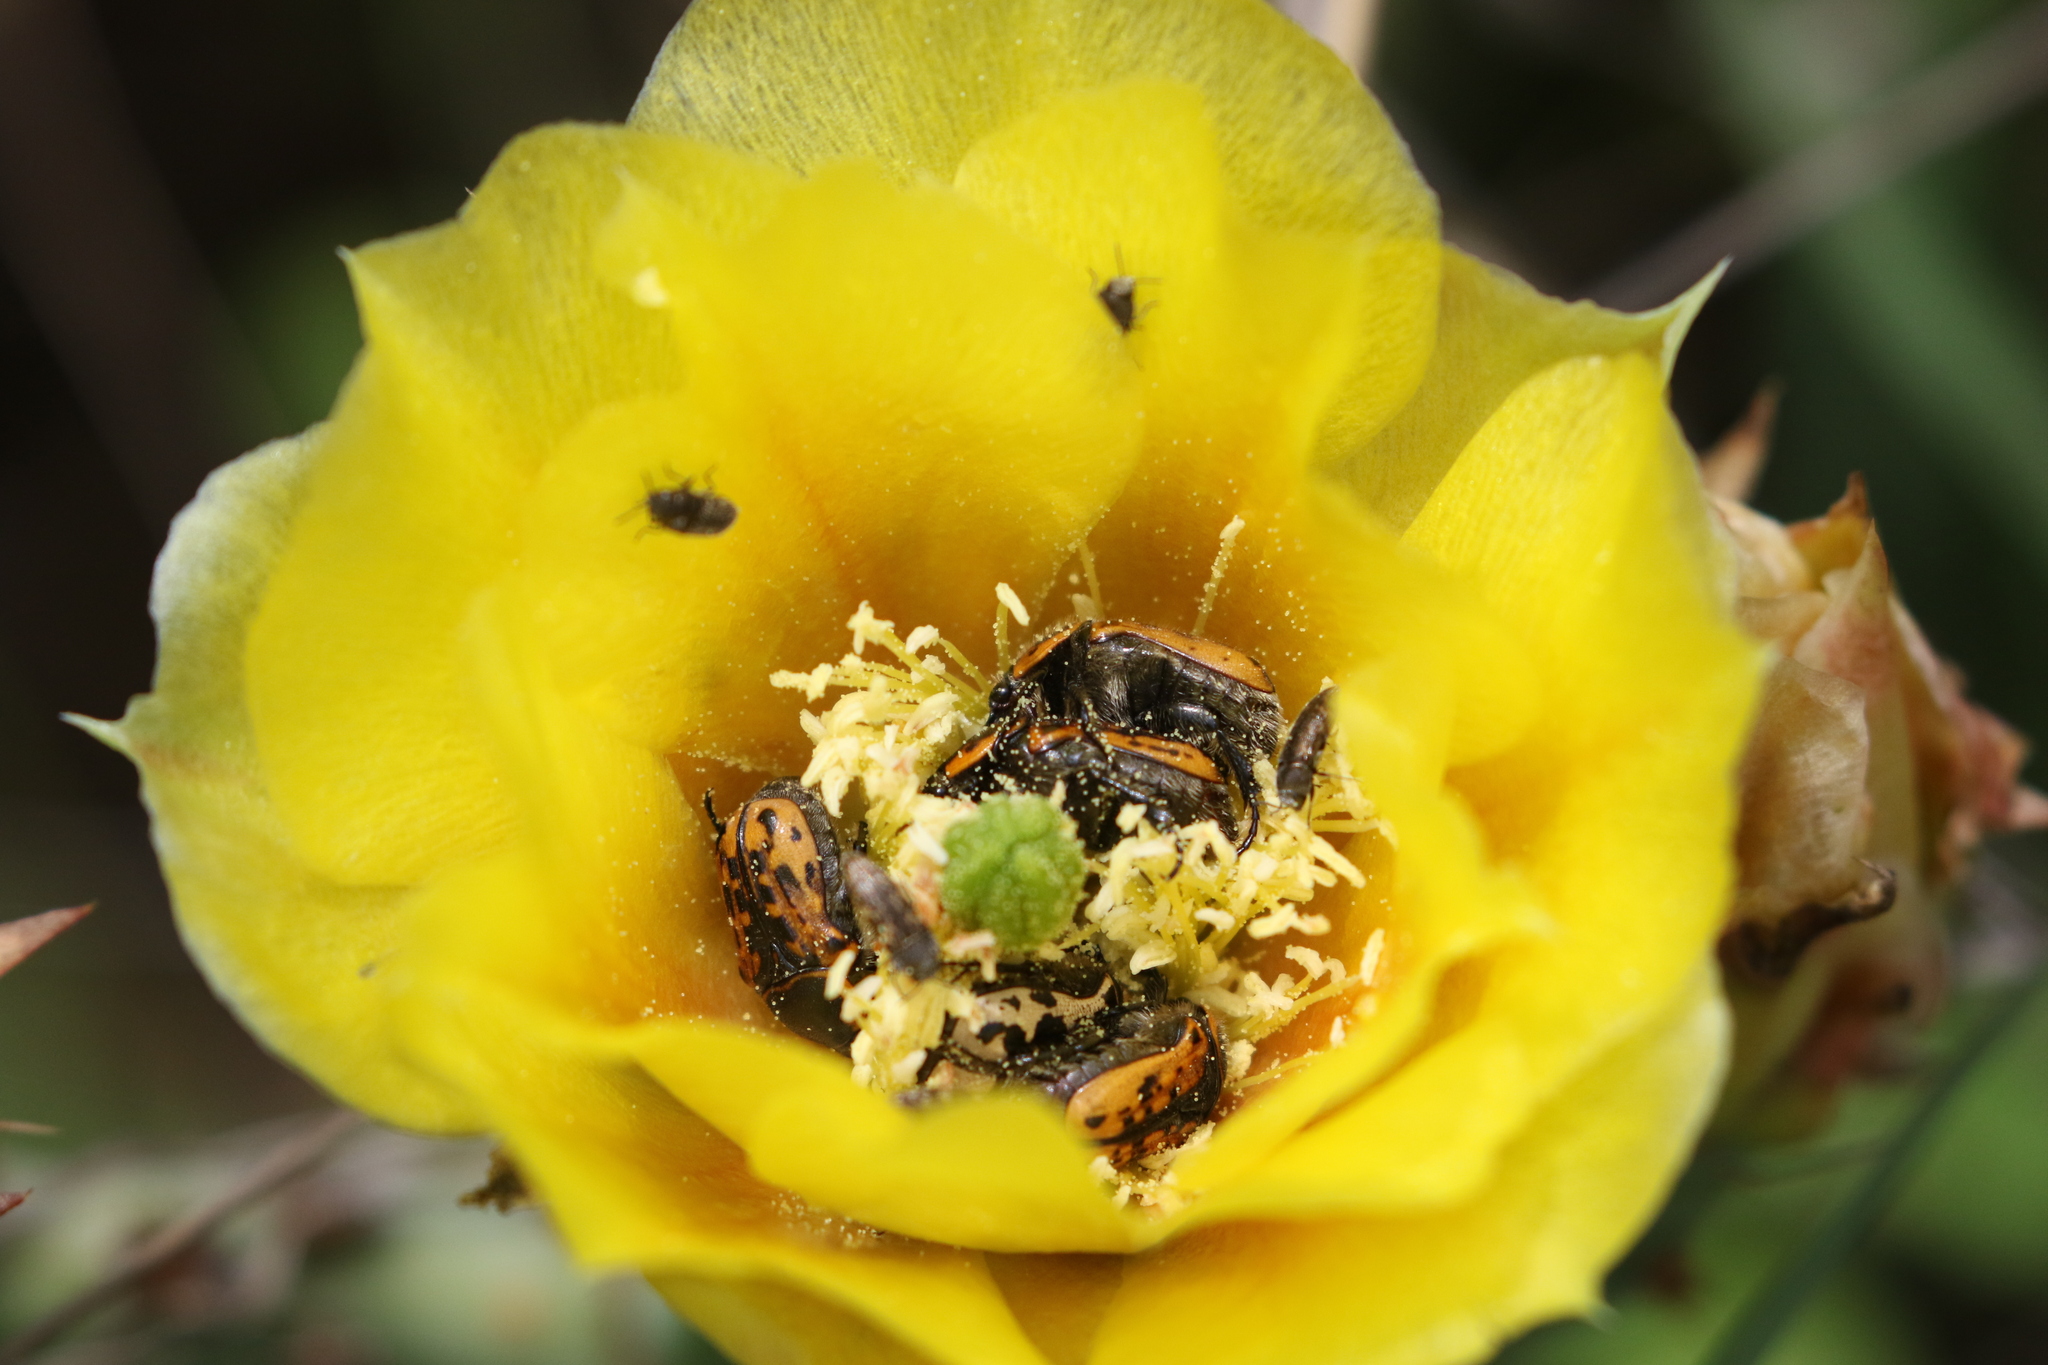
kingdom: Animalia
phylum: Arthropoda
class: Insecta
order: Coleoptera
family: Scarabaeidae
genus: Euphoria
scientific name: Euphoria kernii
